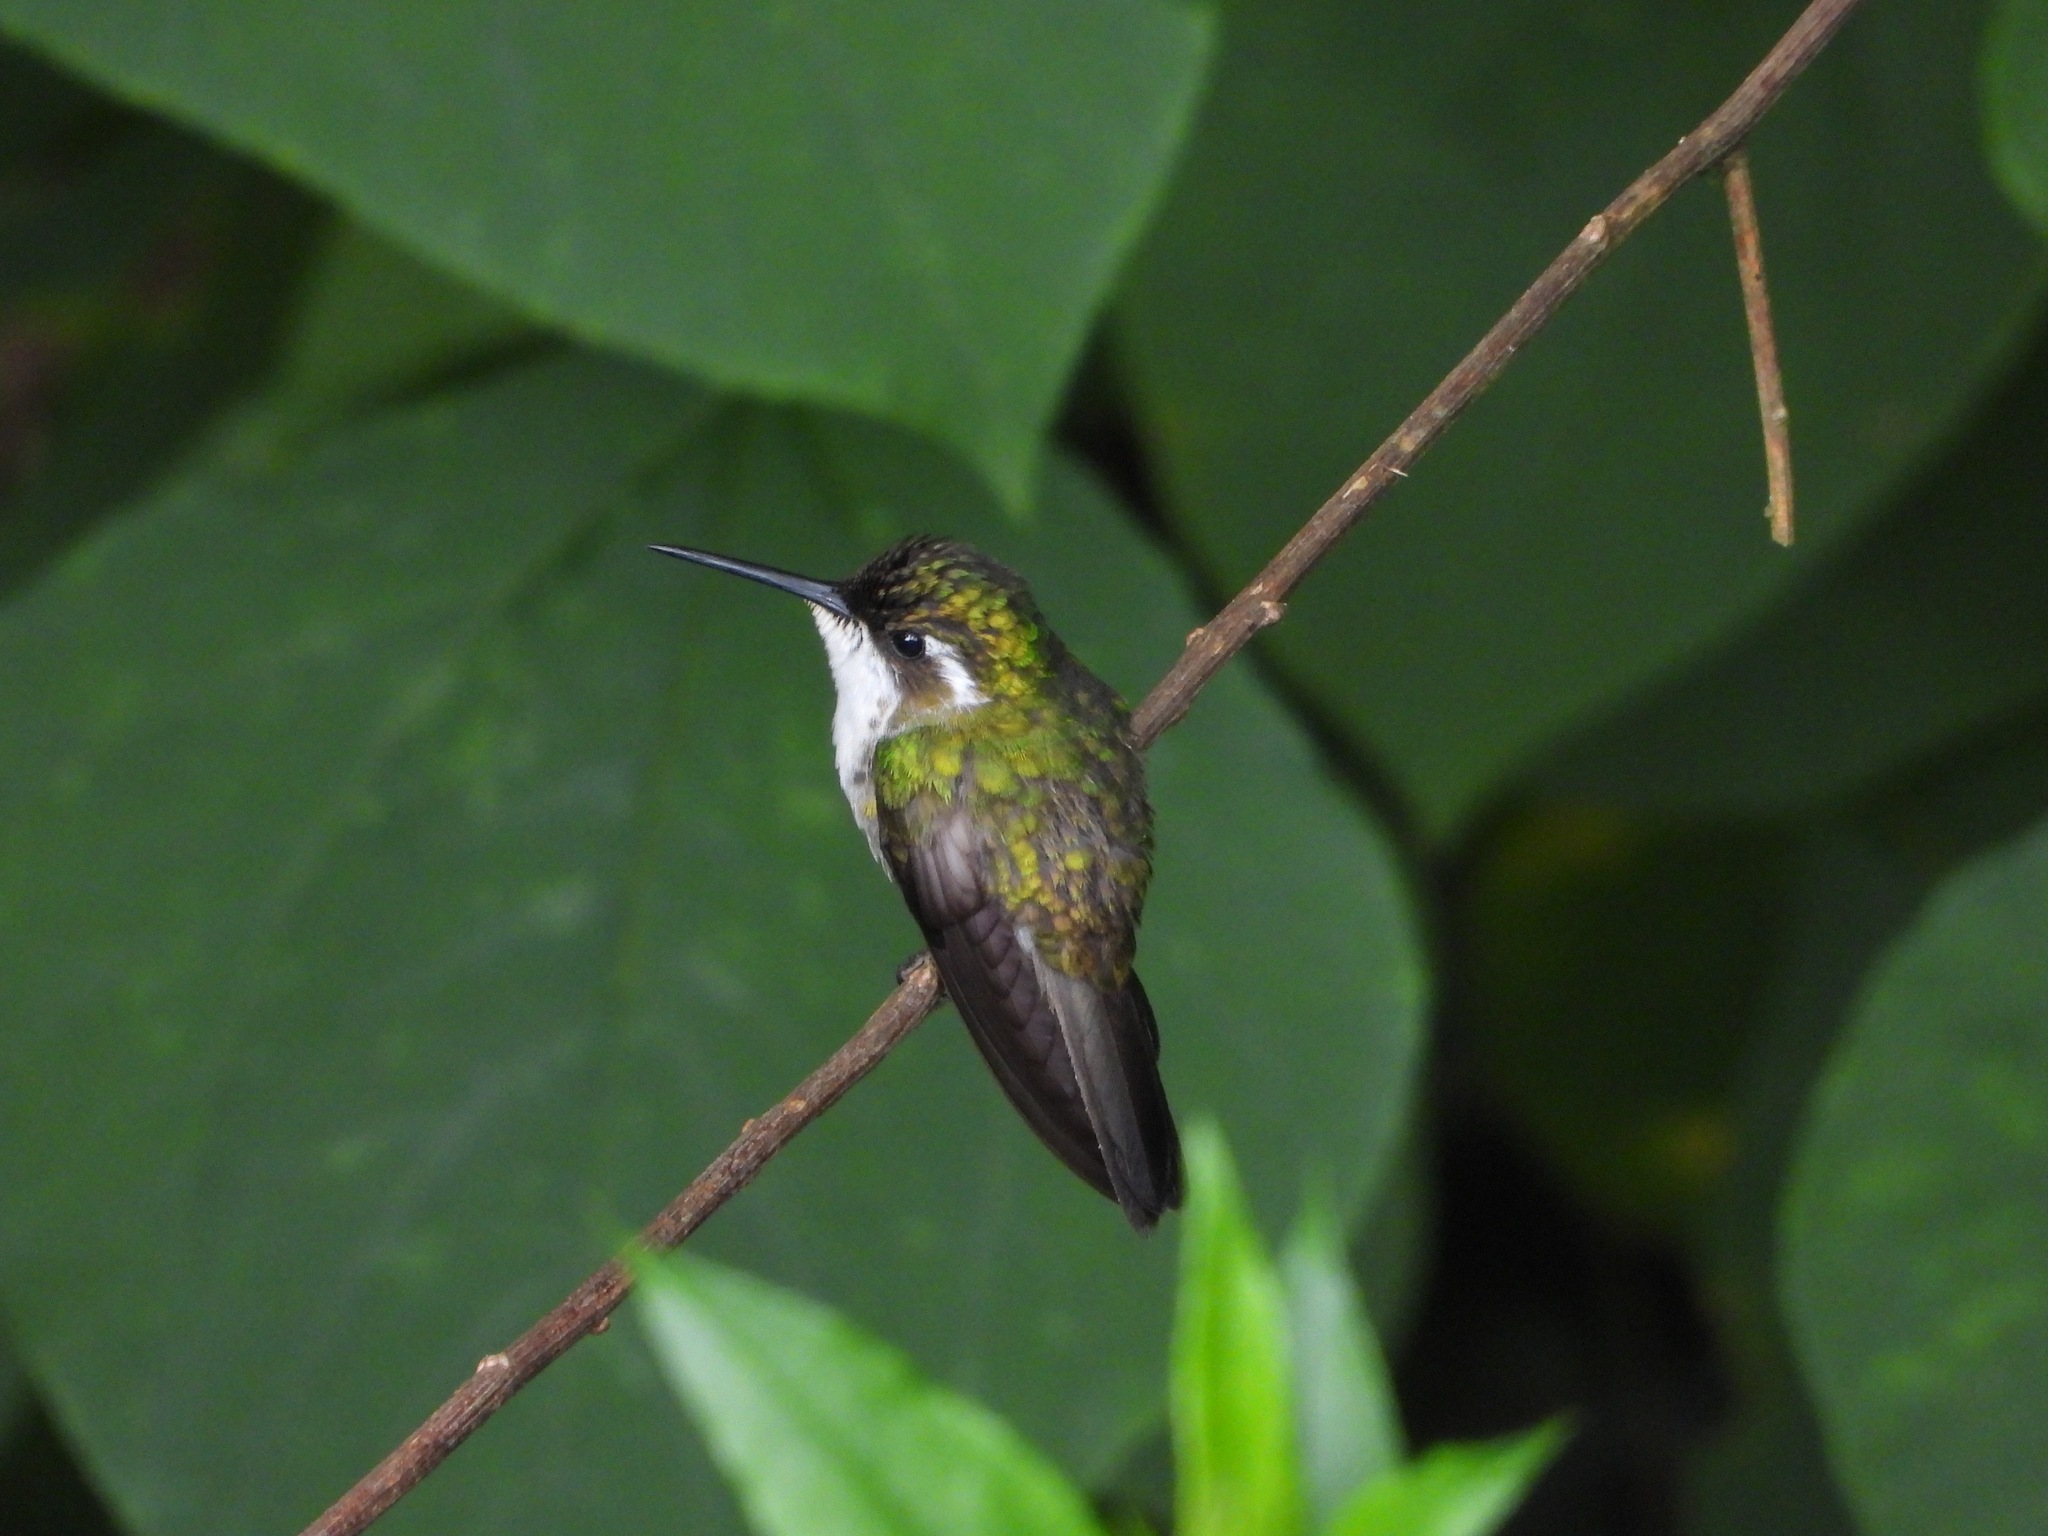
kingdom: Animalia
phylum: Chordata
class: Aves
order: Apodiformes
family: Trochilidae
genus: Lampornis
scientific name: Lampornis viridipallens
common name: Green-throated mountain-gem
